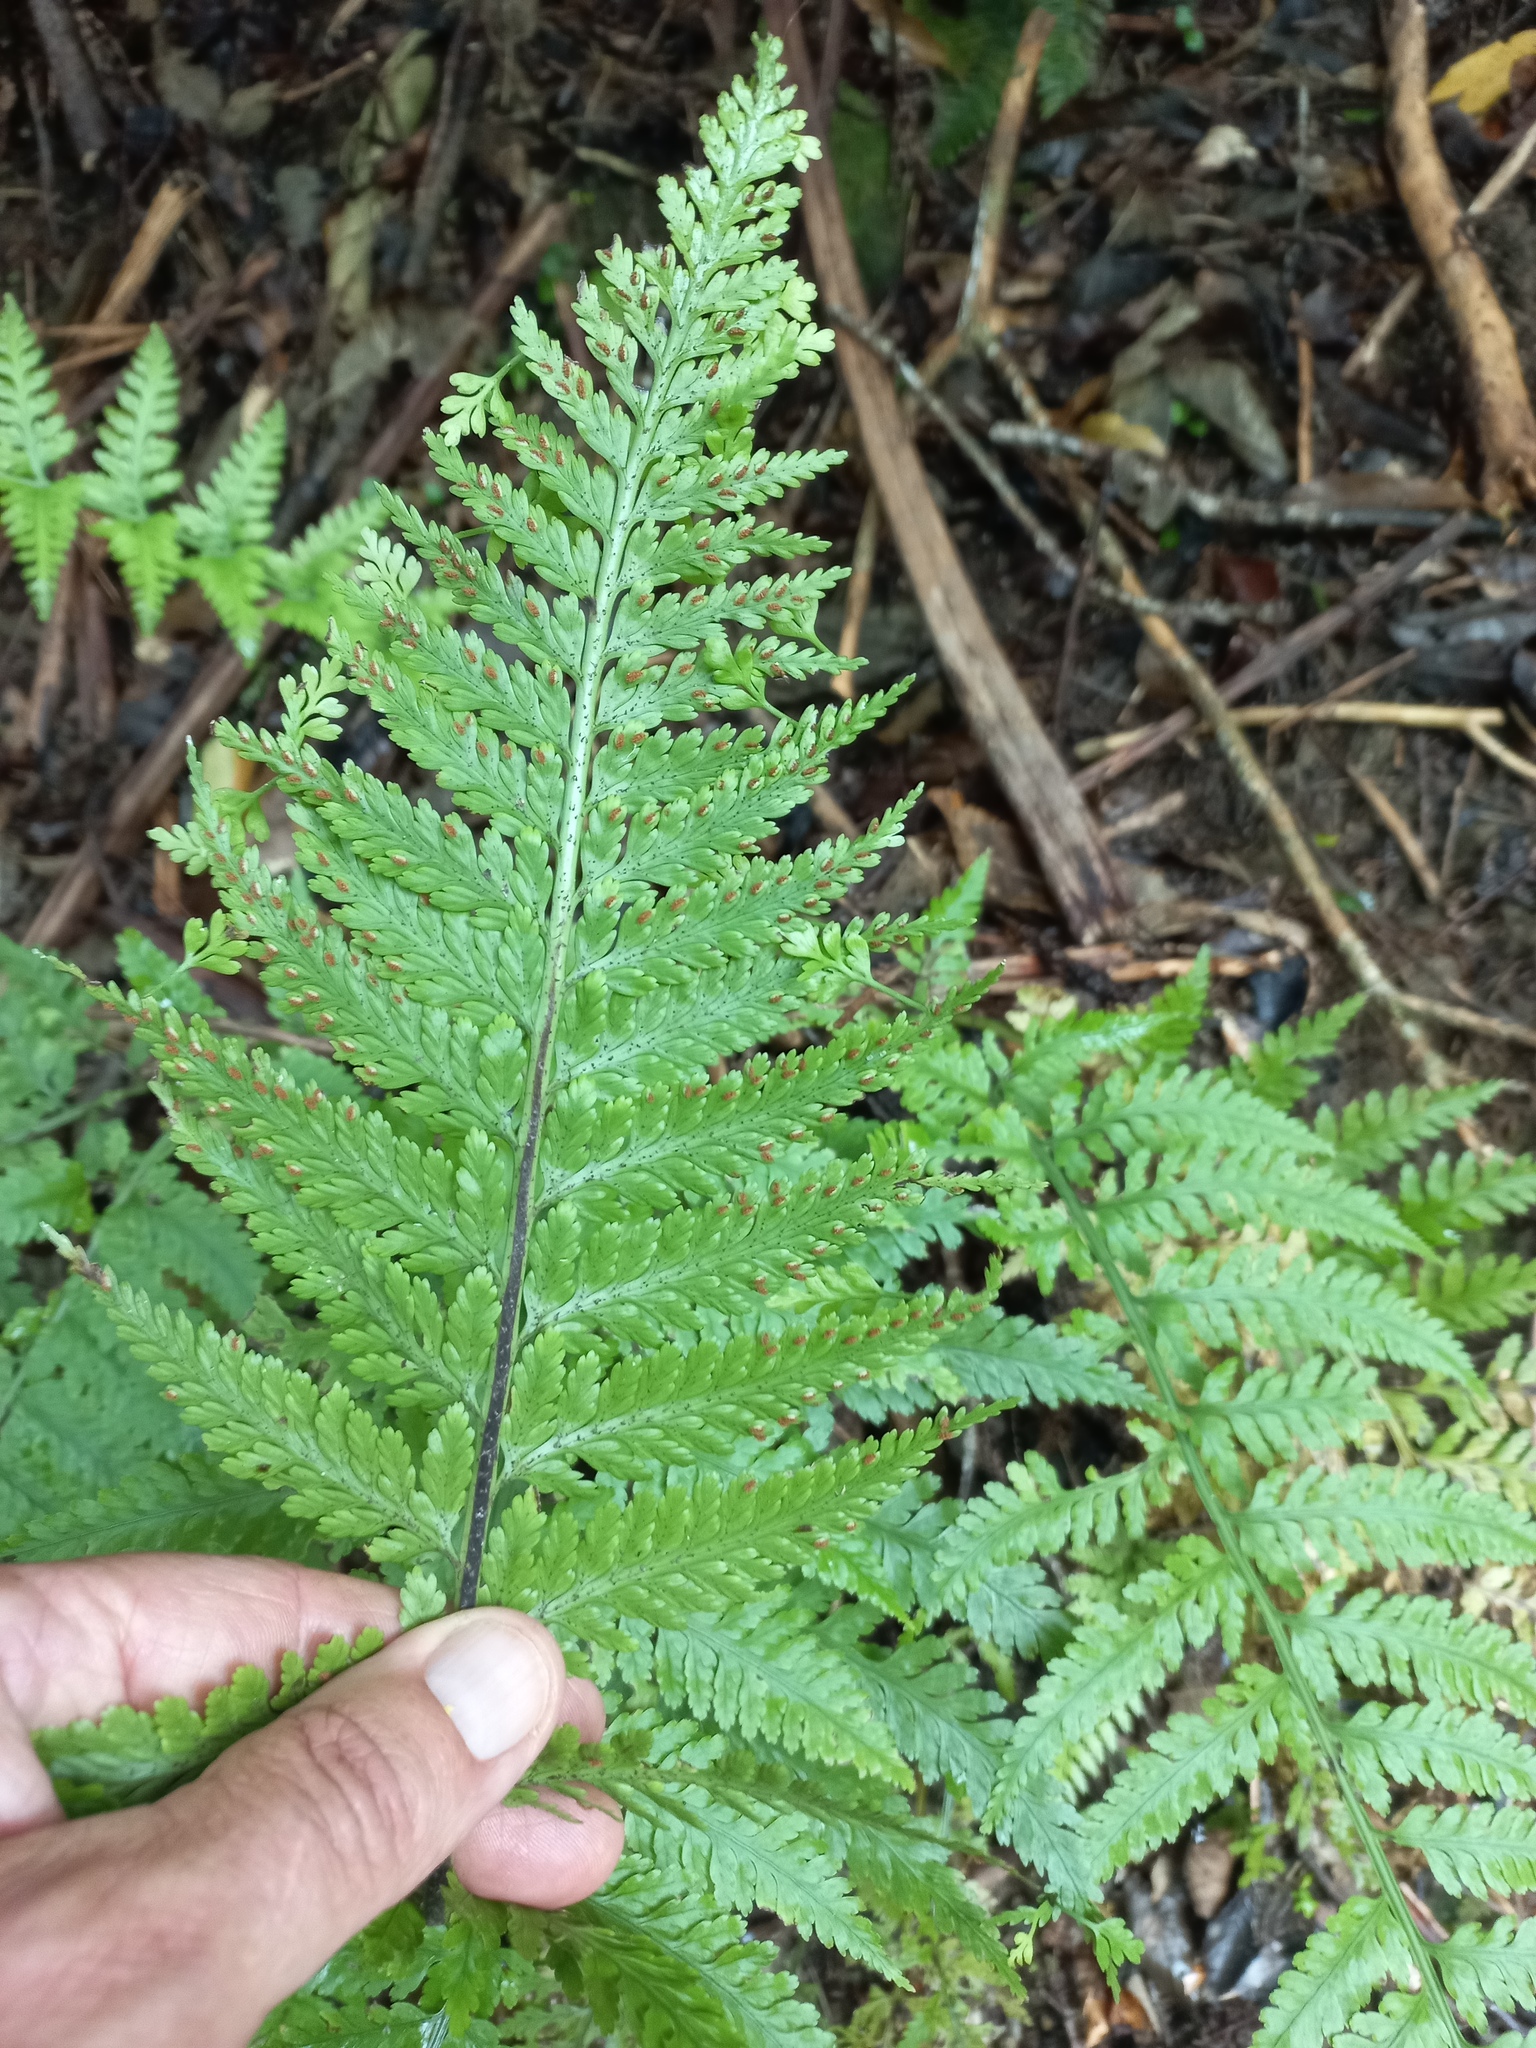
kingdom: Plantae
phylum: Tracheophyta
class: Polypodiopsida
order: Polypodiales
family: Aspleniaceae
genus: Asplenium
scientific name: Asplenium bulbiferum
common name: Mother fern
